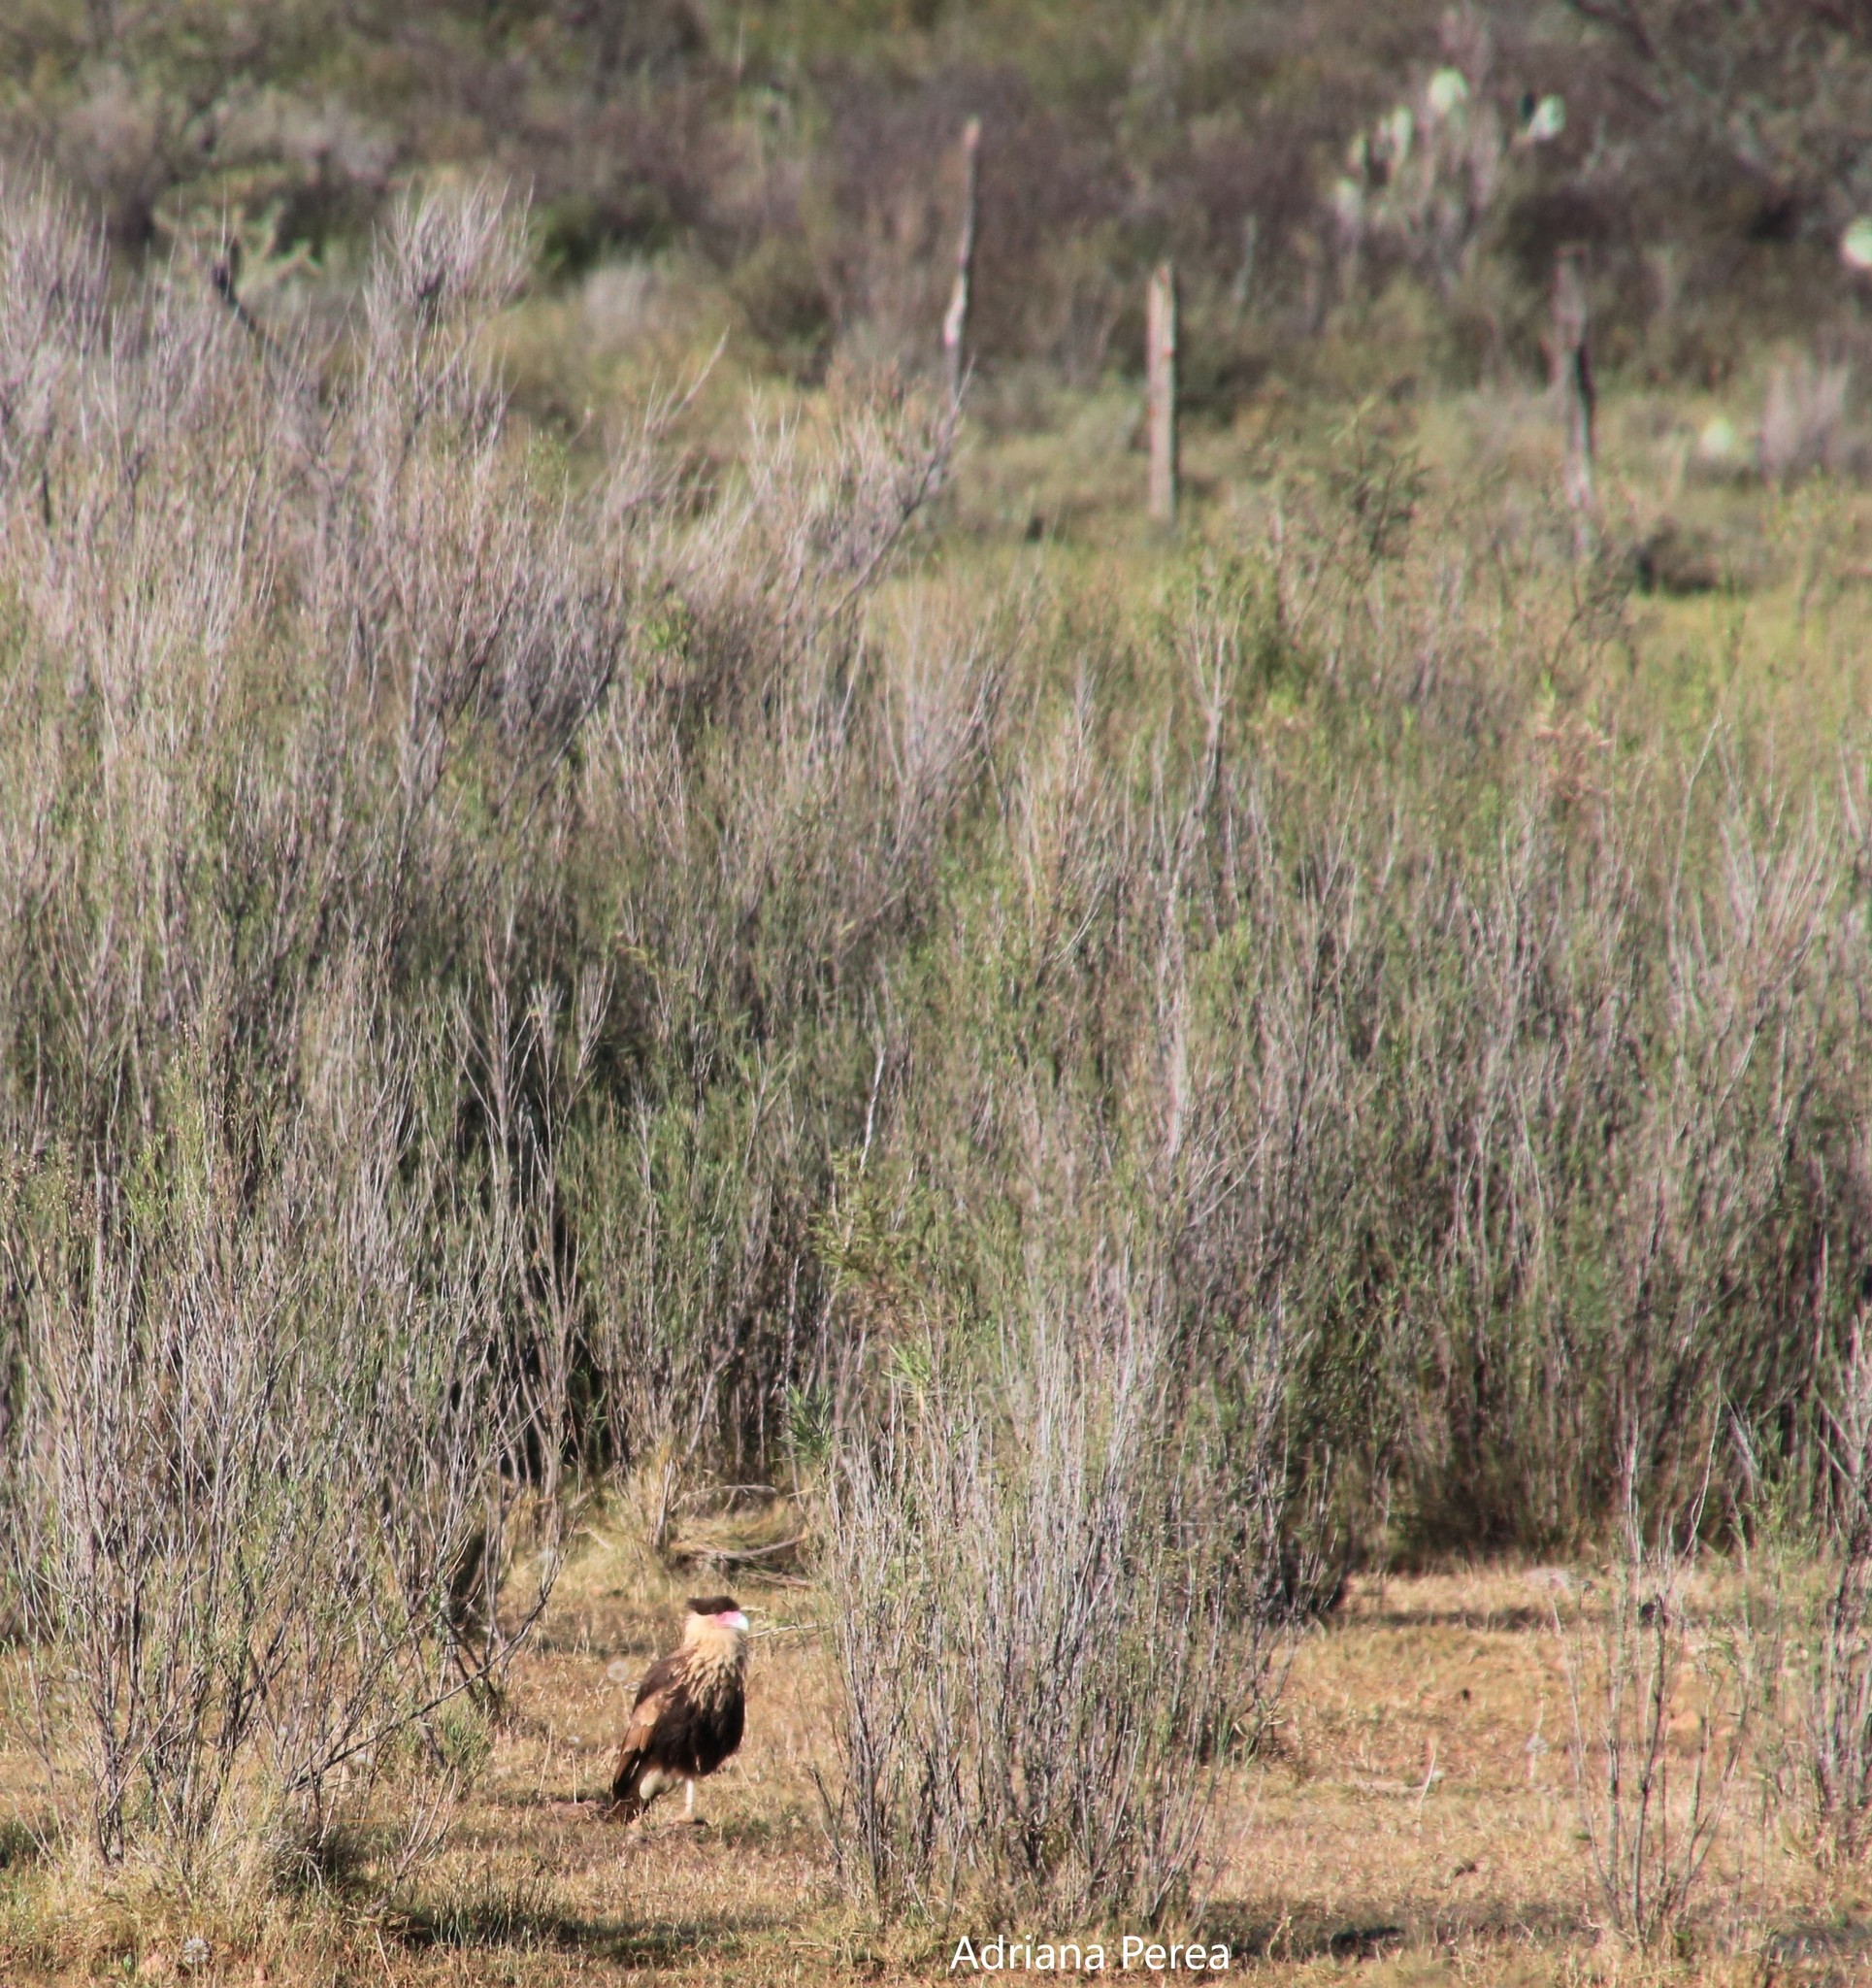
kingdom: Animalia
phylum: Chordata
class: Aves
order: Falconiformes
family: Falconidae
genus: Caracara
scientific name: Caracara plancus
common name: Southern caracara
